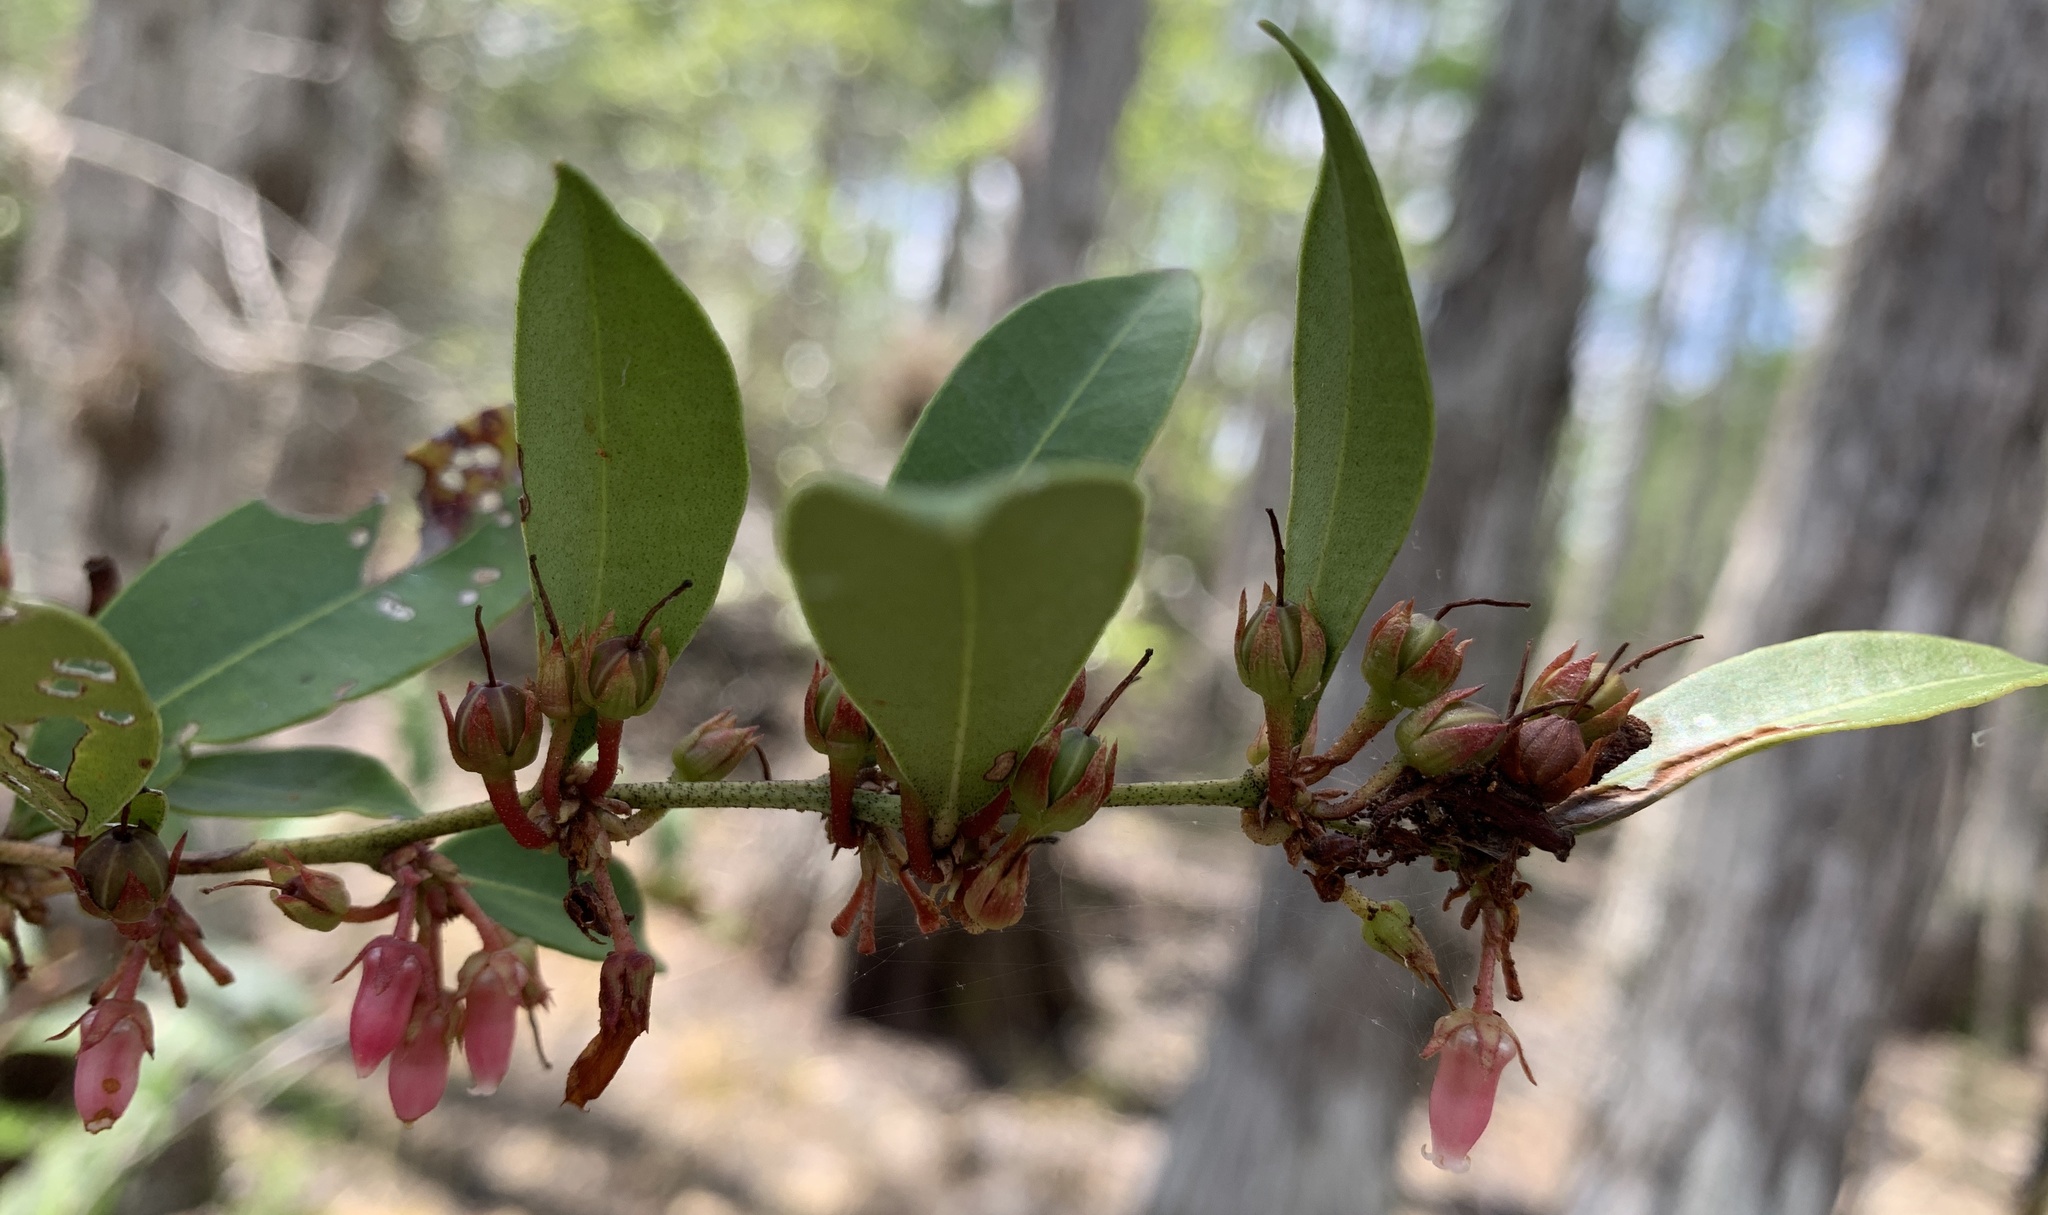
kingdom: Plantae
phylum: Tracheophyta
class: Magnoliopsida
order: Ericales
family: Ericaceae
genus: Lyonia
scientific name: Lyonia lucida
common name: Fetterbush
